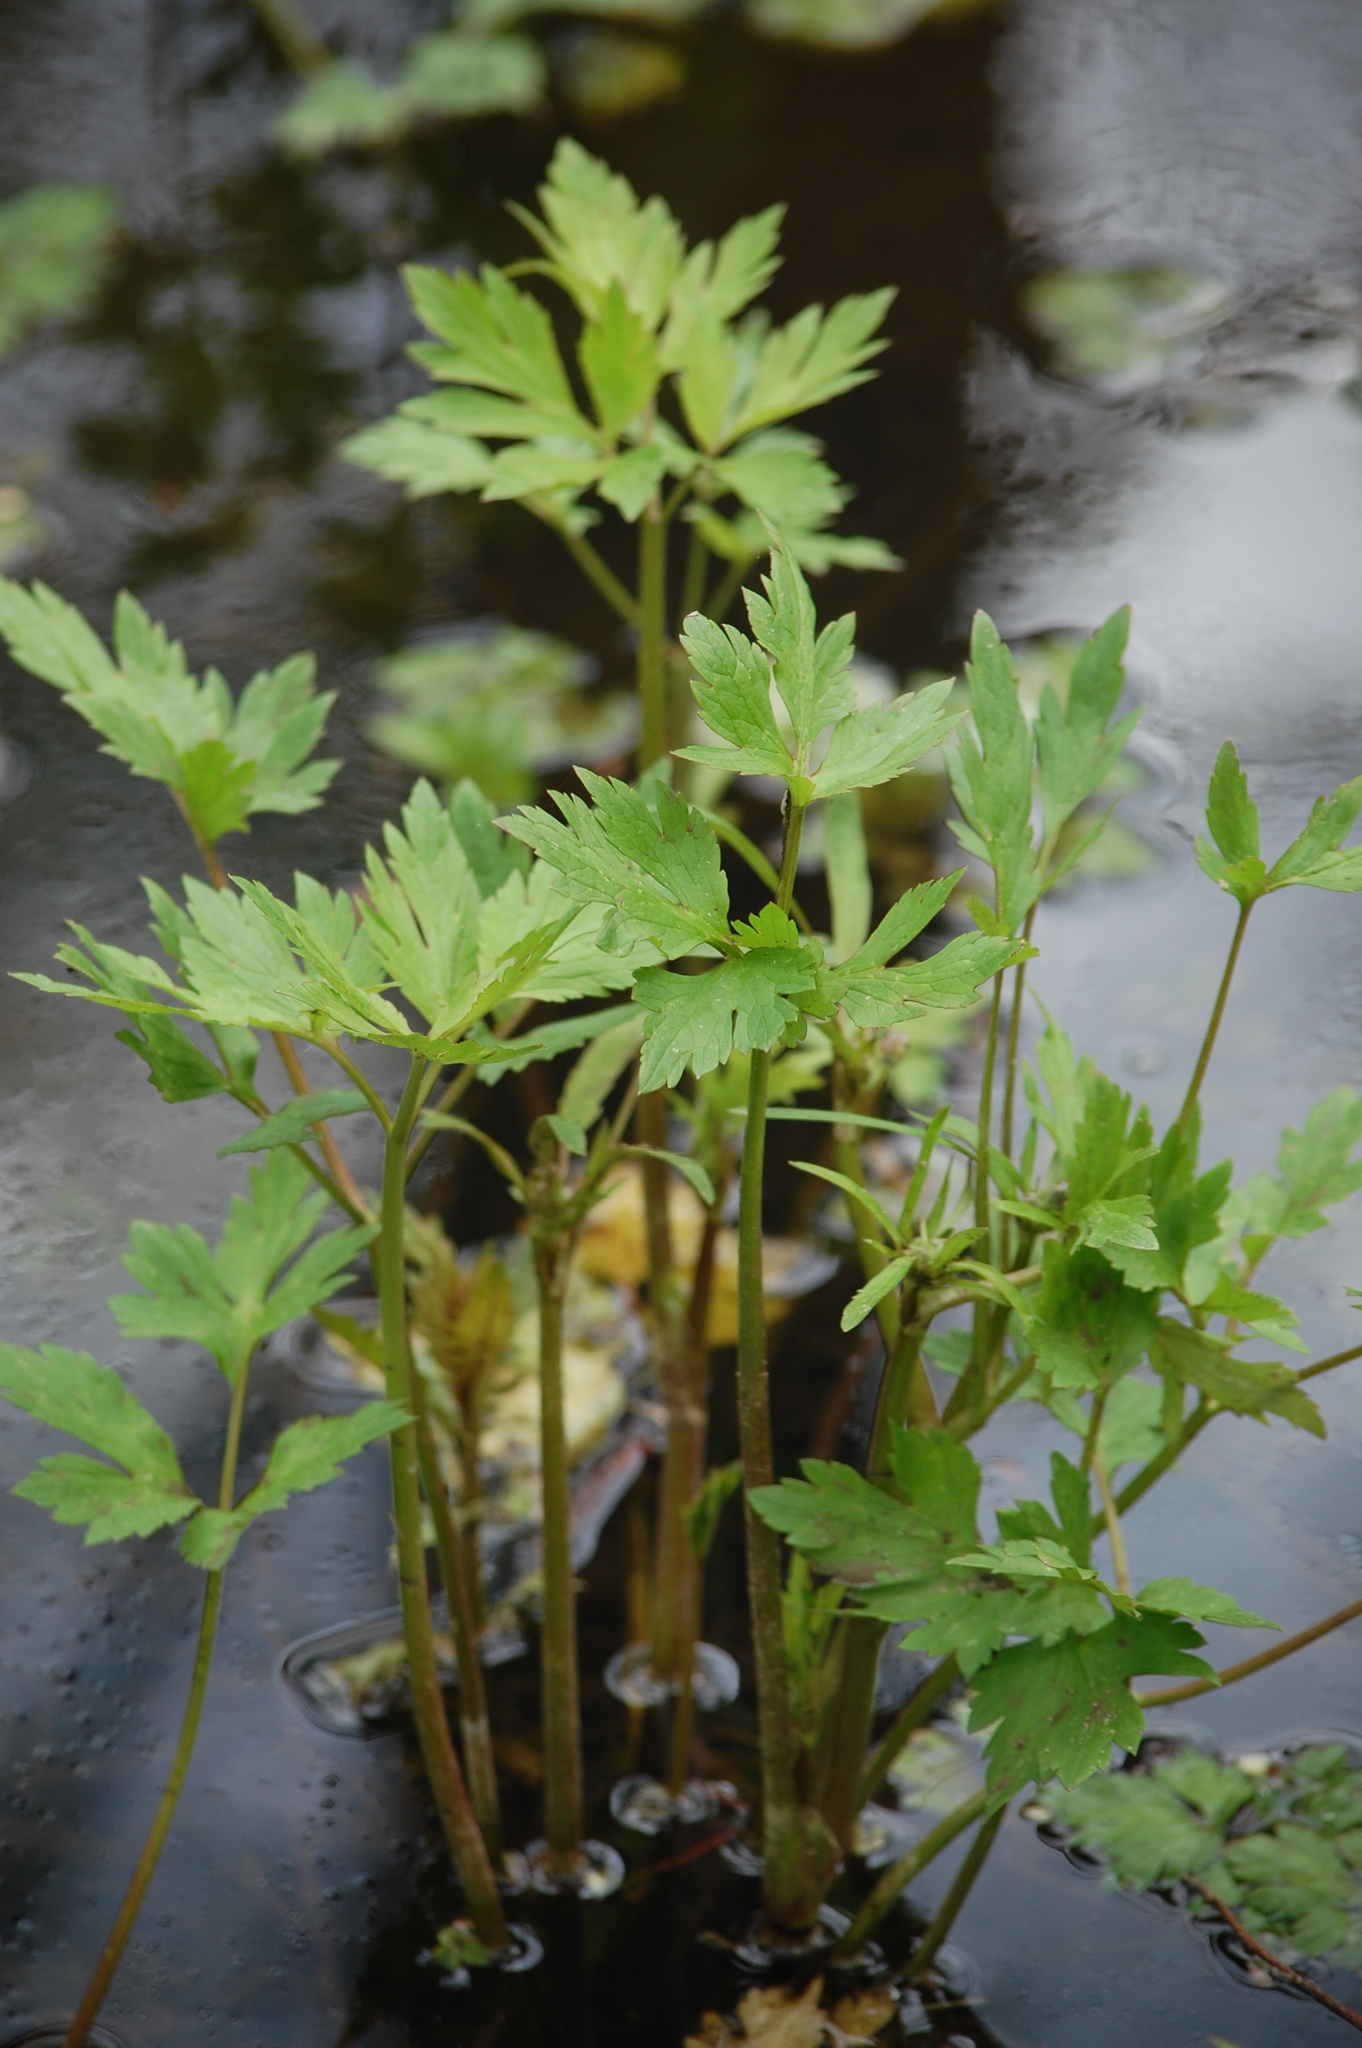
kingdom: Plantae
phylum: Tracheophyta
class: Magnoliopsida
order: Ranunculales
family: Ranunculaceae
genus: Ranunculus
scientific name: Ranunculus repens
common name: Creeping buttercup
